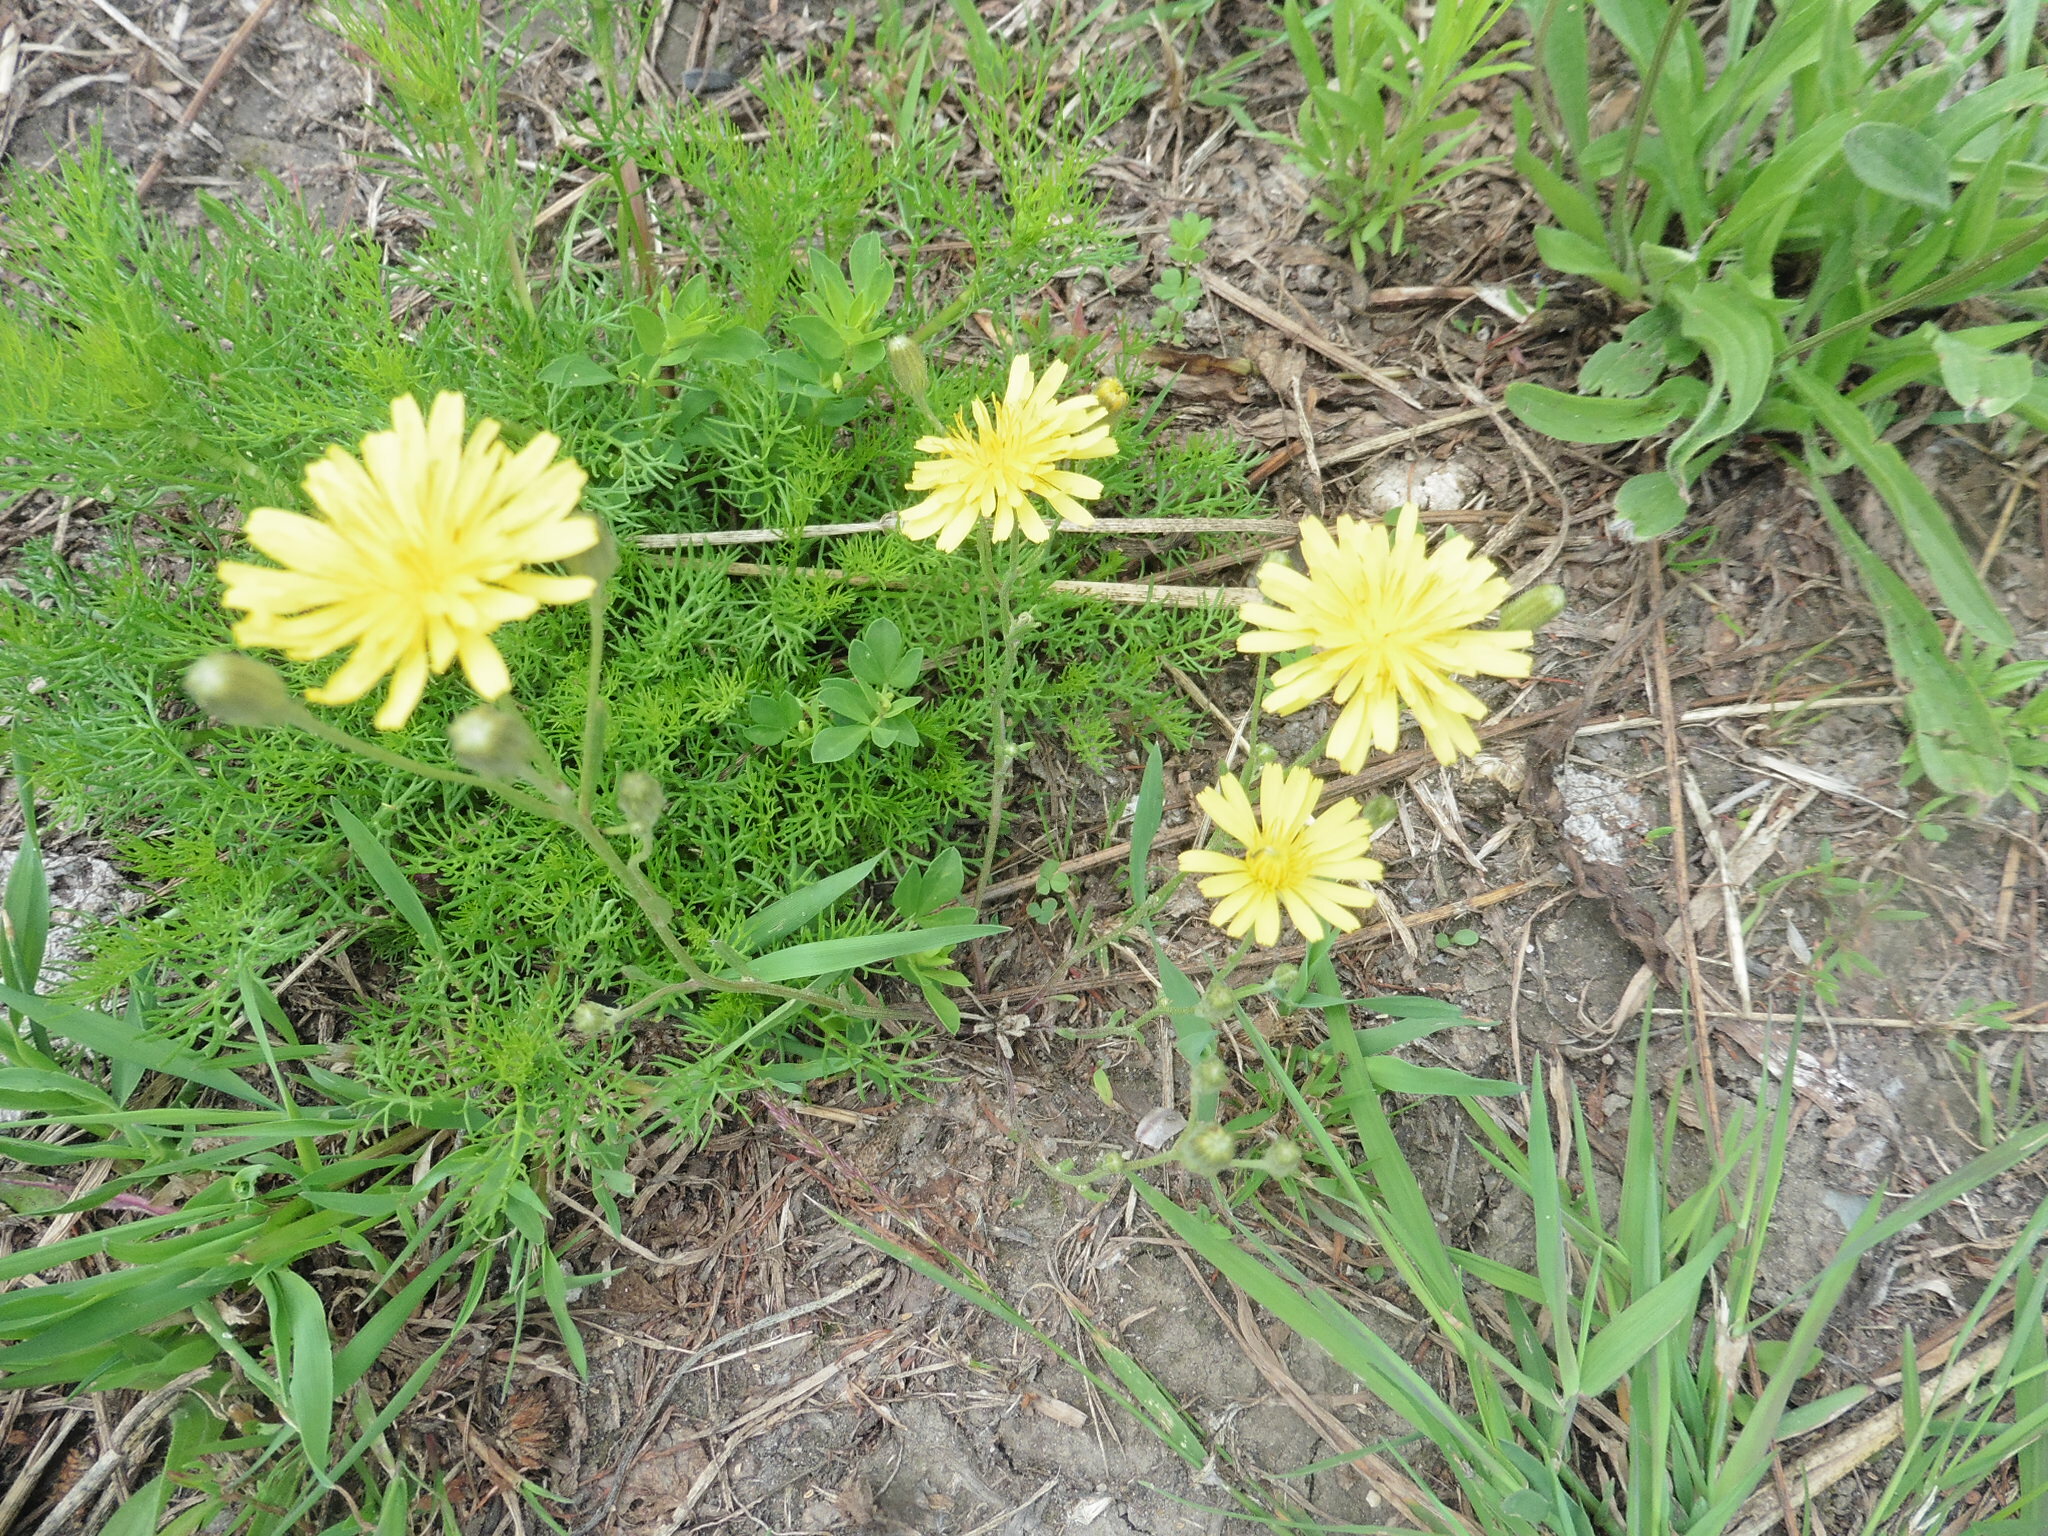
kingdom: Plantae
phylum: Tracheophyta
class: Magnoliopsida
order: Asterales
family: Asteraceae
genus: Crepis
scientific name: Crepis tectorum
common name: Narrow-leaved hawk's-beard
